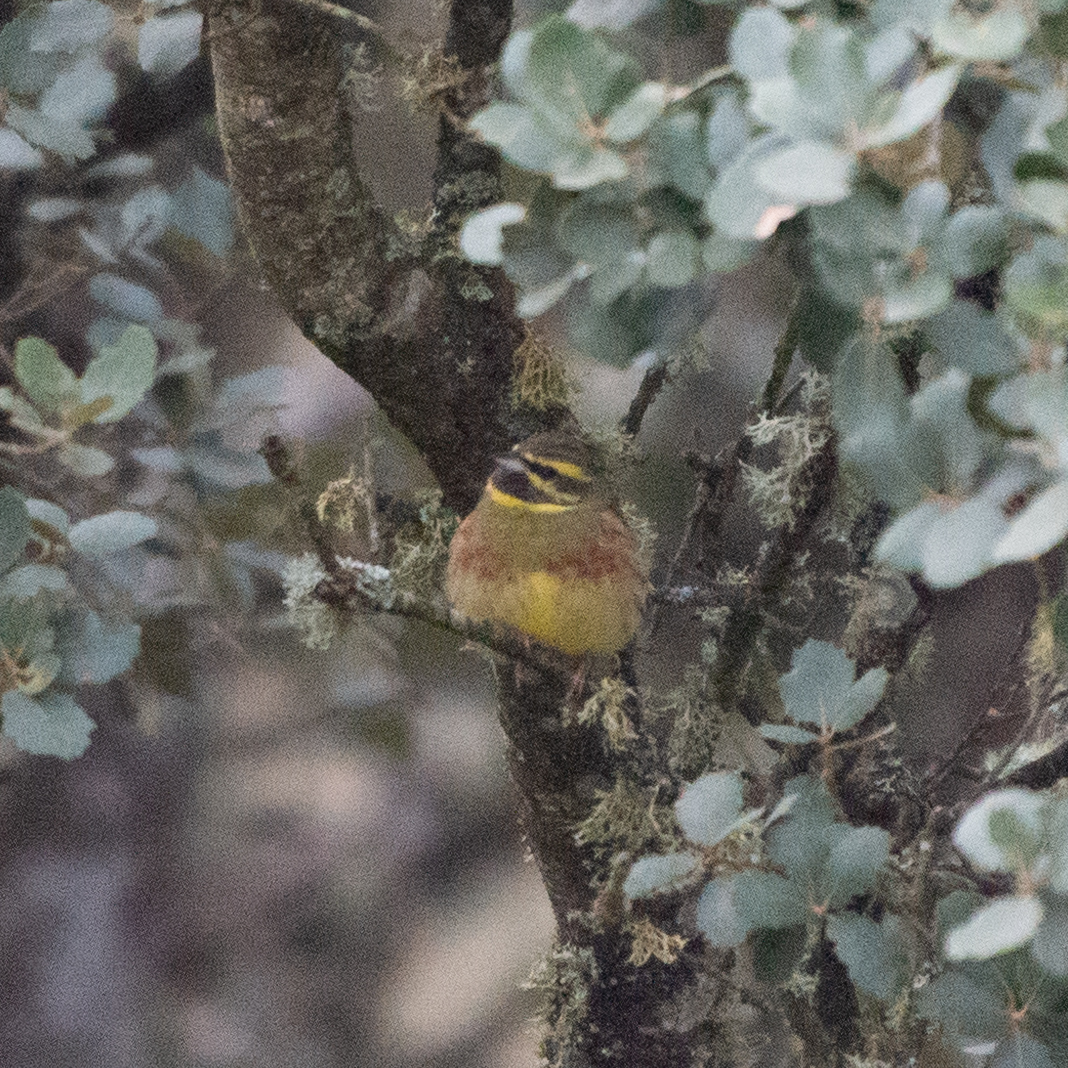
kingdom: Animalia
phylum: Chordata
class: Aves
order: Passeriformes
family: Emberizidae
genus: Emberiza
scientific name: Emberiza cirlus
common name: Cirl bunting
